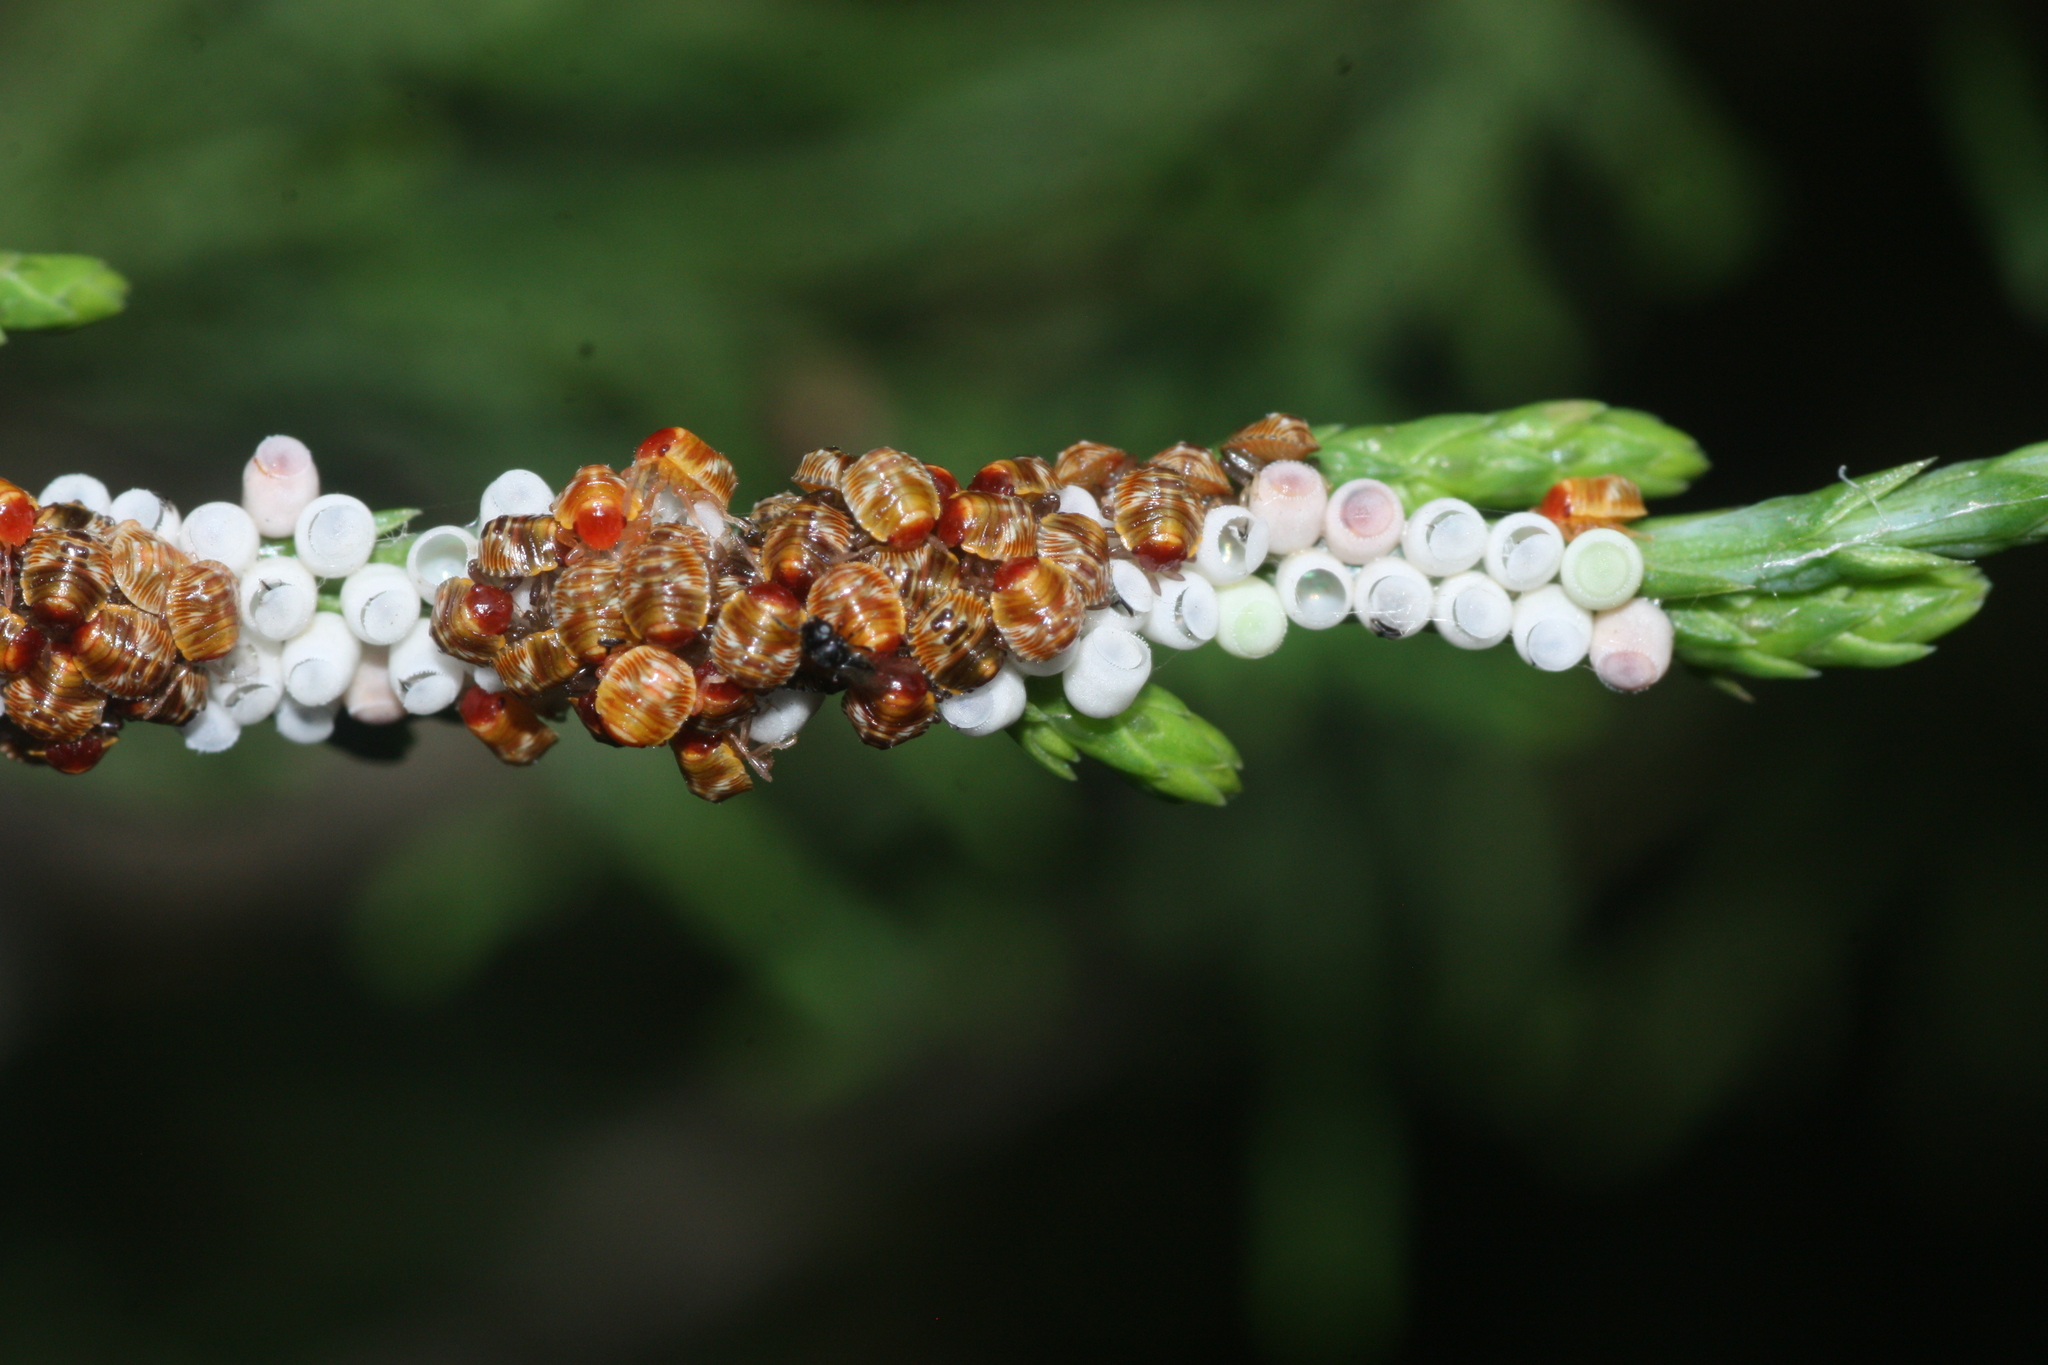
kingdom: Animalia
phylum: Arthropoda
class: Insecta
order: Hemiptera
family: Pentatomidae
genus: Chinavia
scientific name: Chinavia hilaris
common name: Green stink bug
